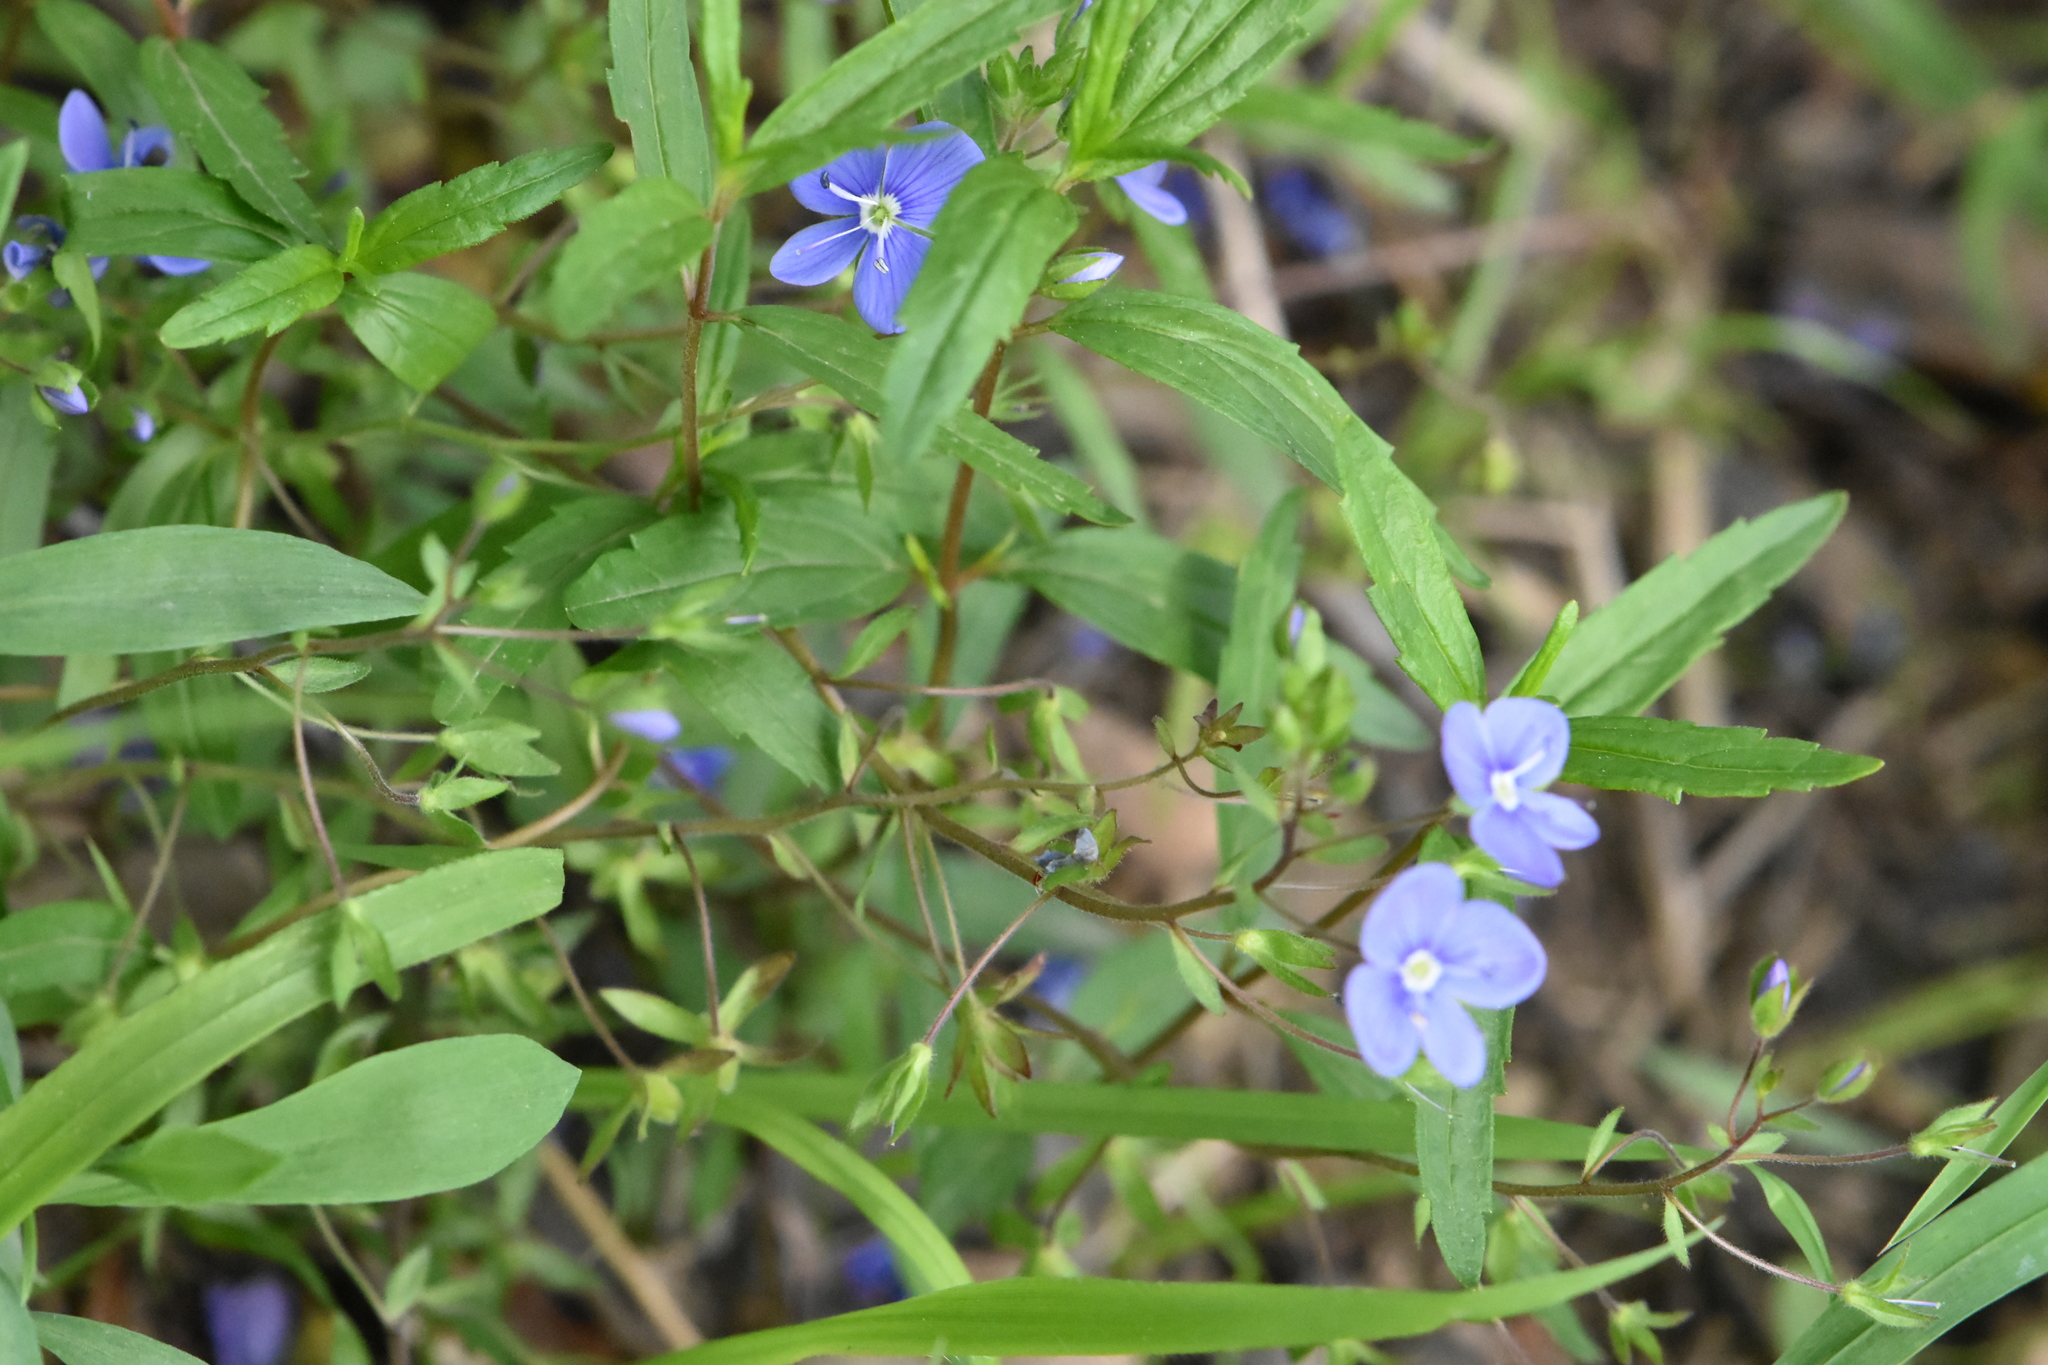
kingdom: Plantae
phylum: Tracheophyta
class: Magnoliopsida
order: Caryophyllales
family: Caryophyllaceae
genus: Silene
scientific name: Silene latifolia
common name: White campion
